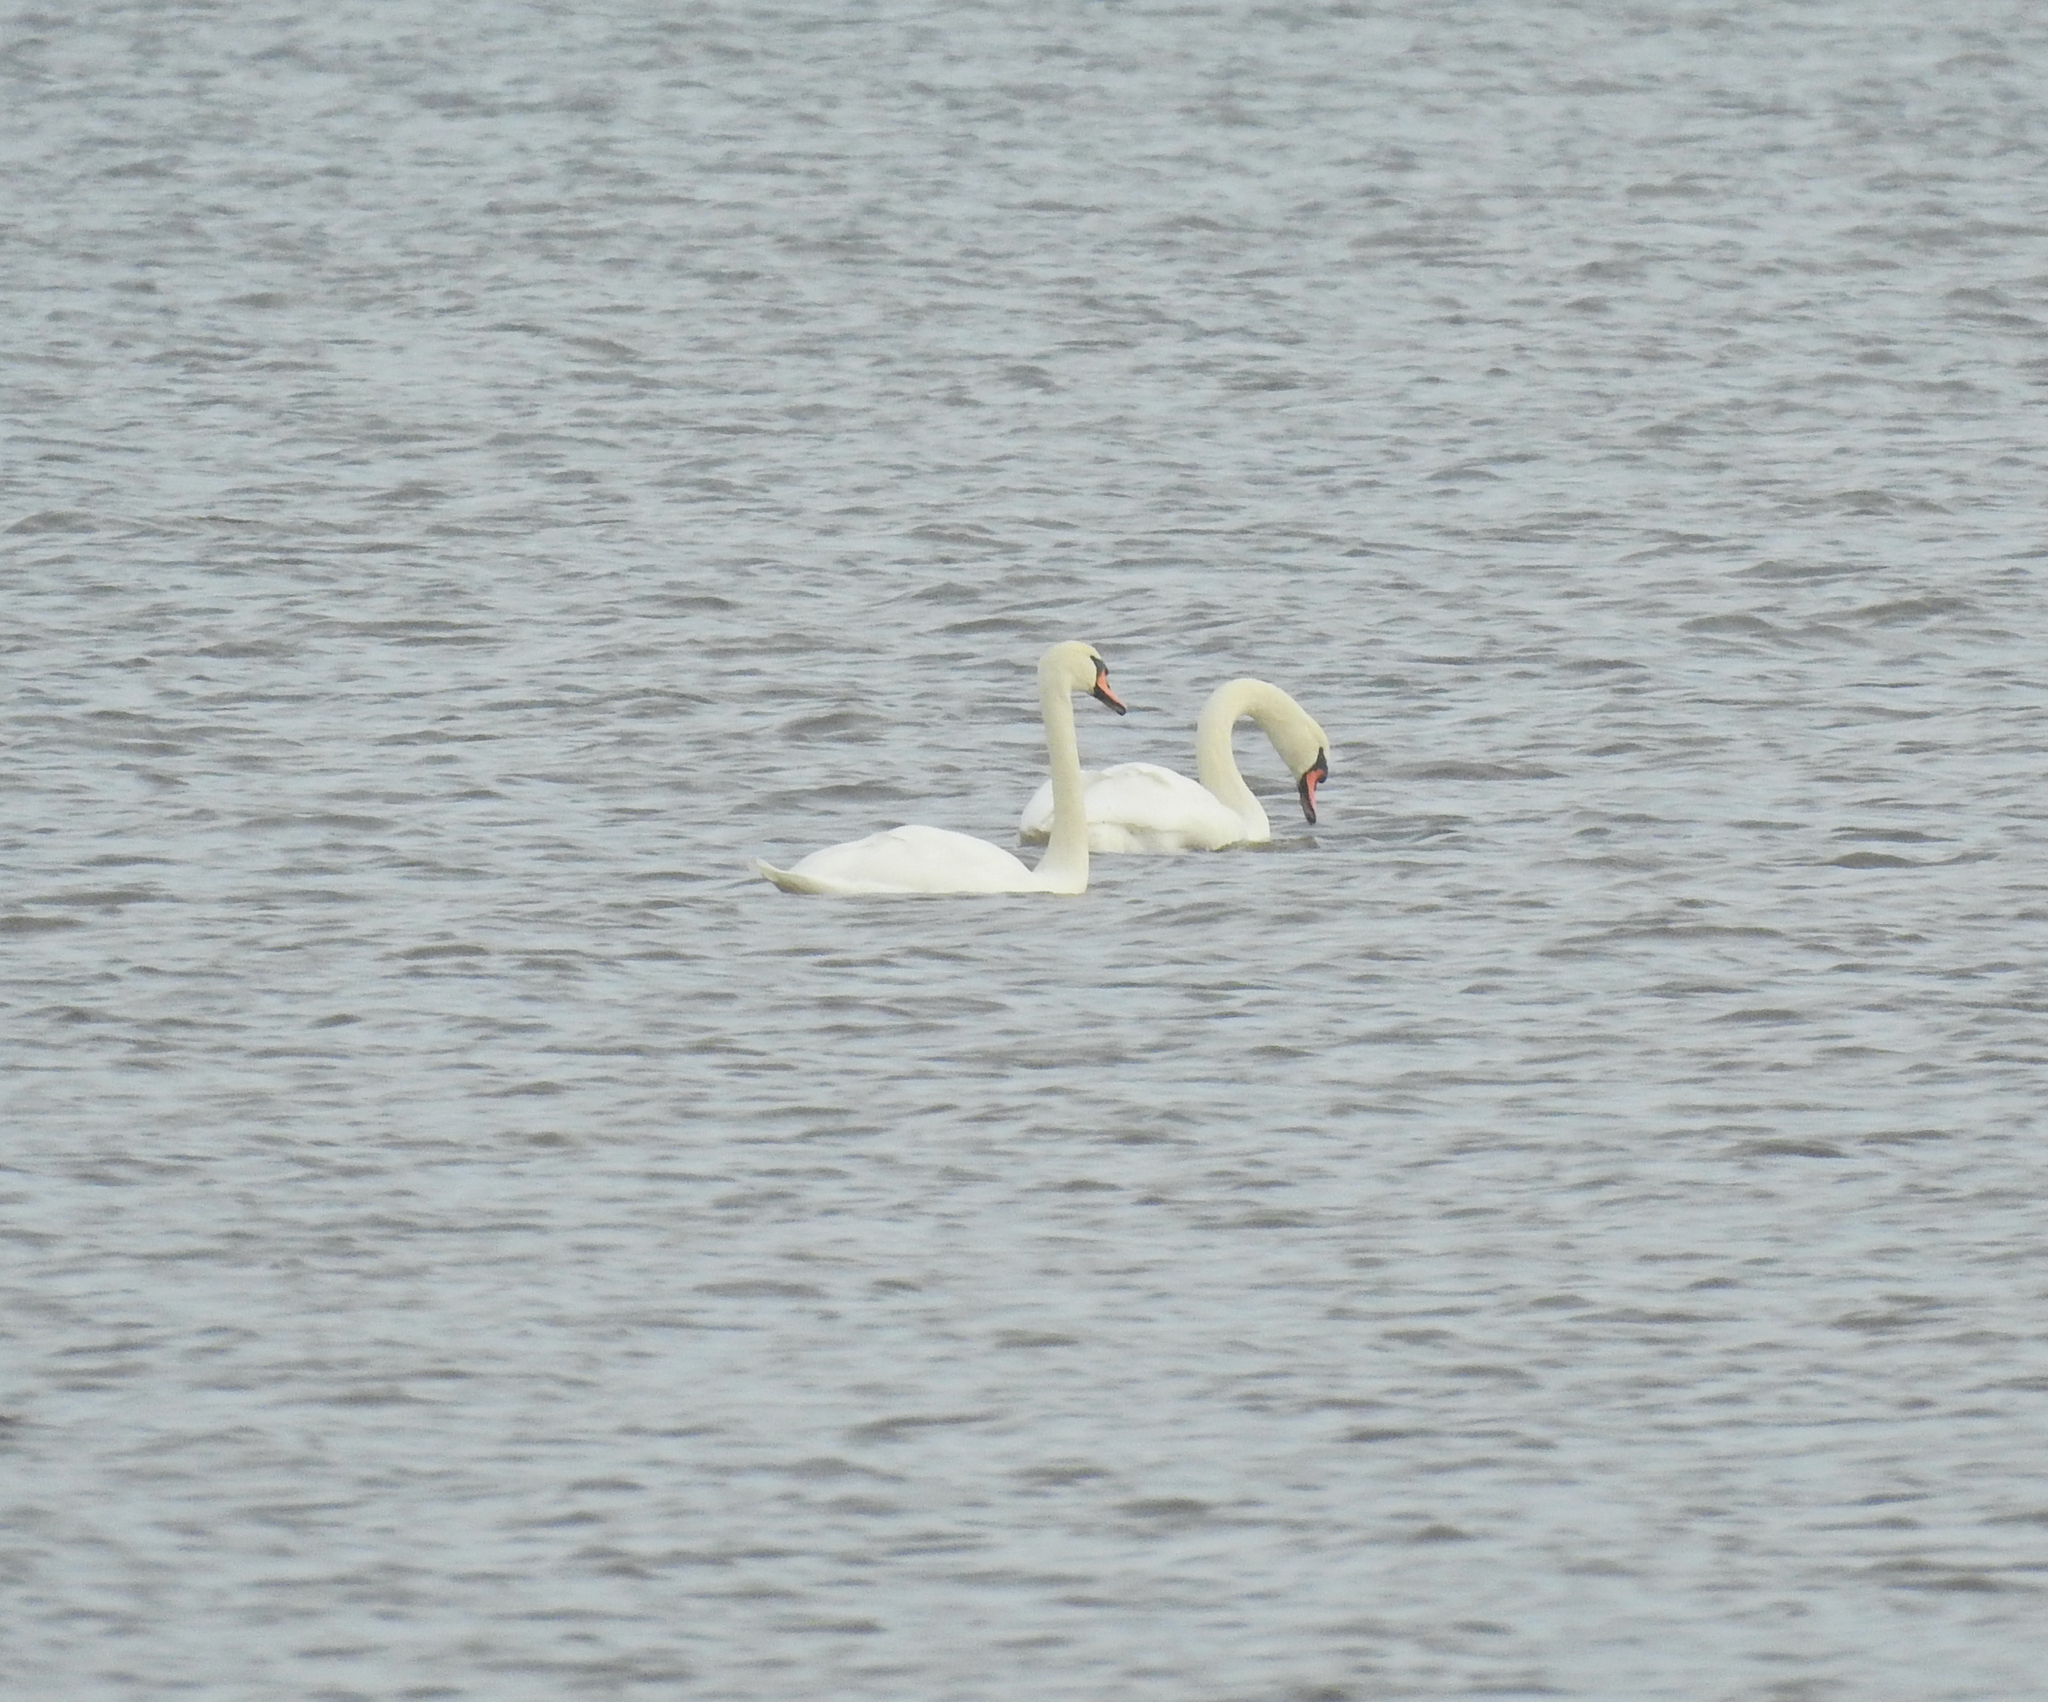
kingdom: Animalia
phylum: Chordata
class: Aves
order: Anseriformes
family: Anatidae
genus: Cygnus
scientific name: Cygnus olor
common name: Mute swan
